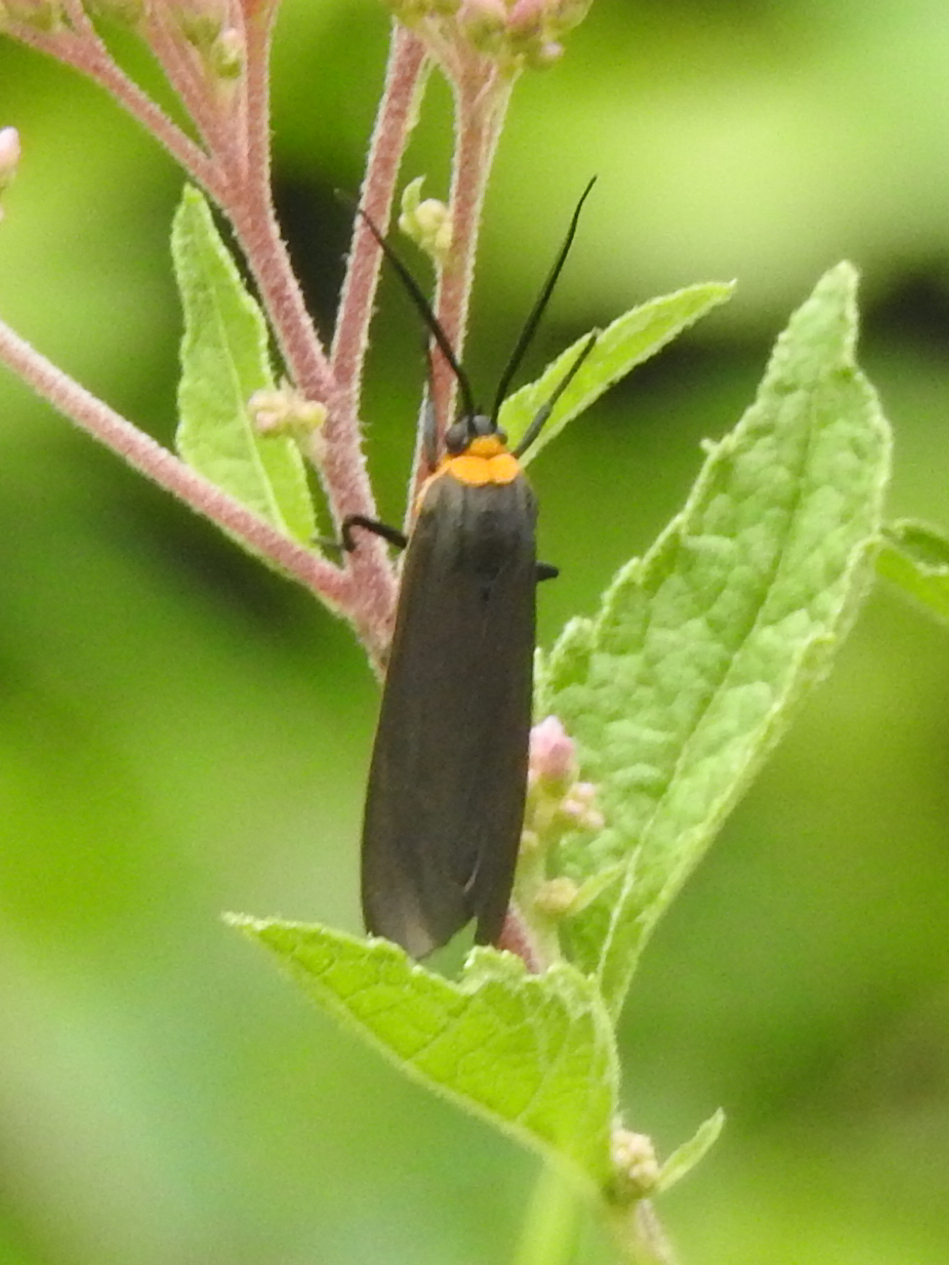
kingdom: Animalia
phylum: Arthropoda
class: Insecta
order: Lepidoptera
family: Erebidae
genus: Cisseps
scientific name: Cisseps fulvicollis
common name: Yellow-collared scape moth
